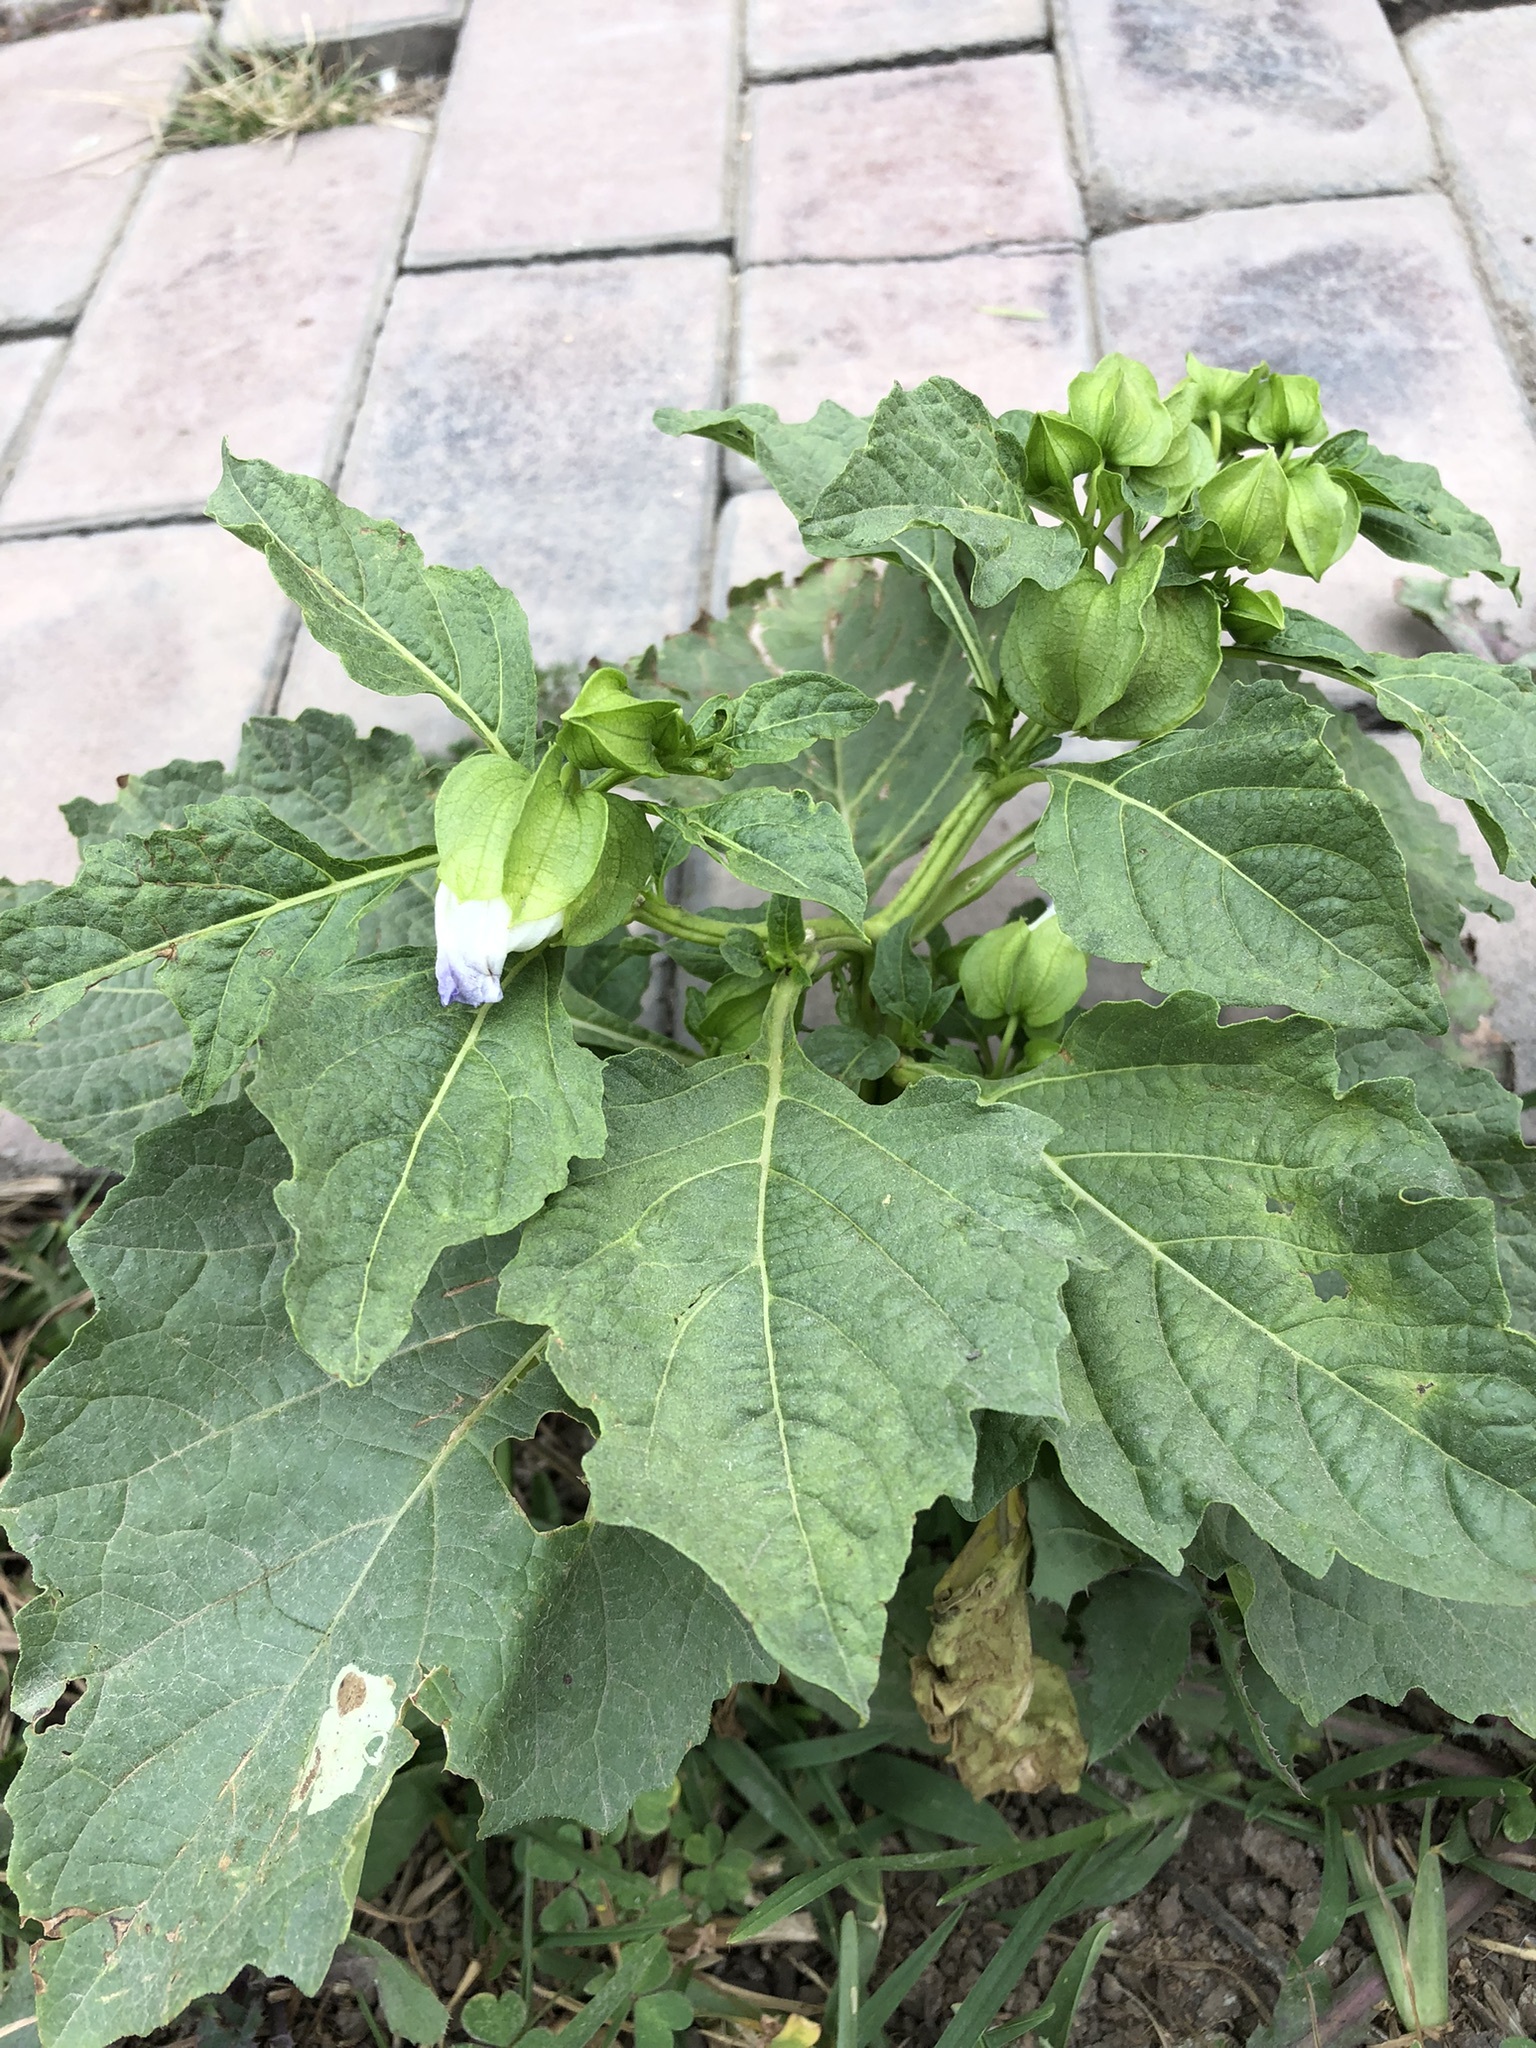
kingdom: Plantae
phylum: Tracheophyta
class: Magnoliopsida
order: Solanales
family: Solanaceae
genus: Nicandra
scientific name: Nicandra physalodes
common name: Apple-of-peru
